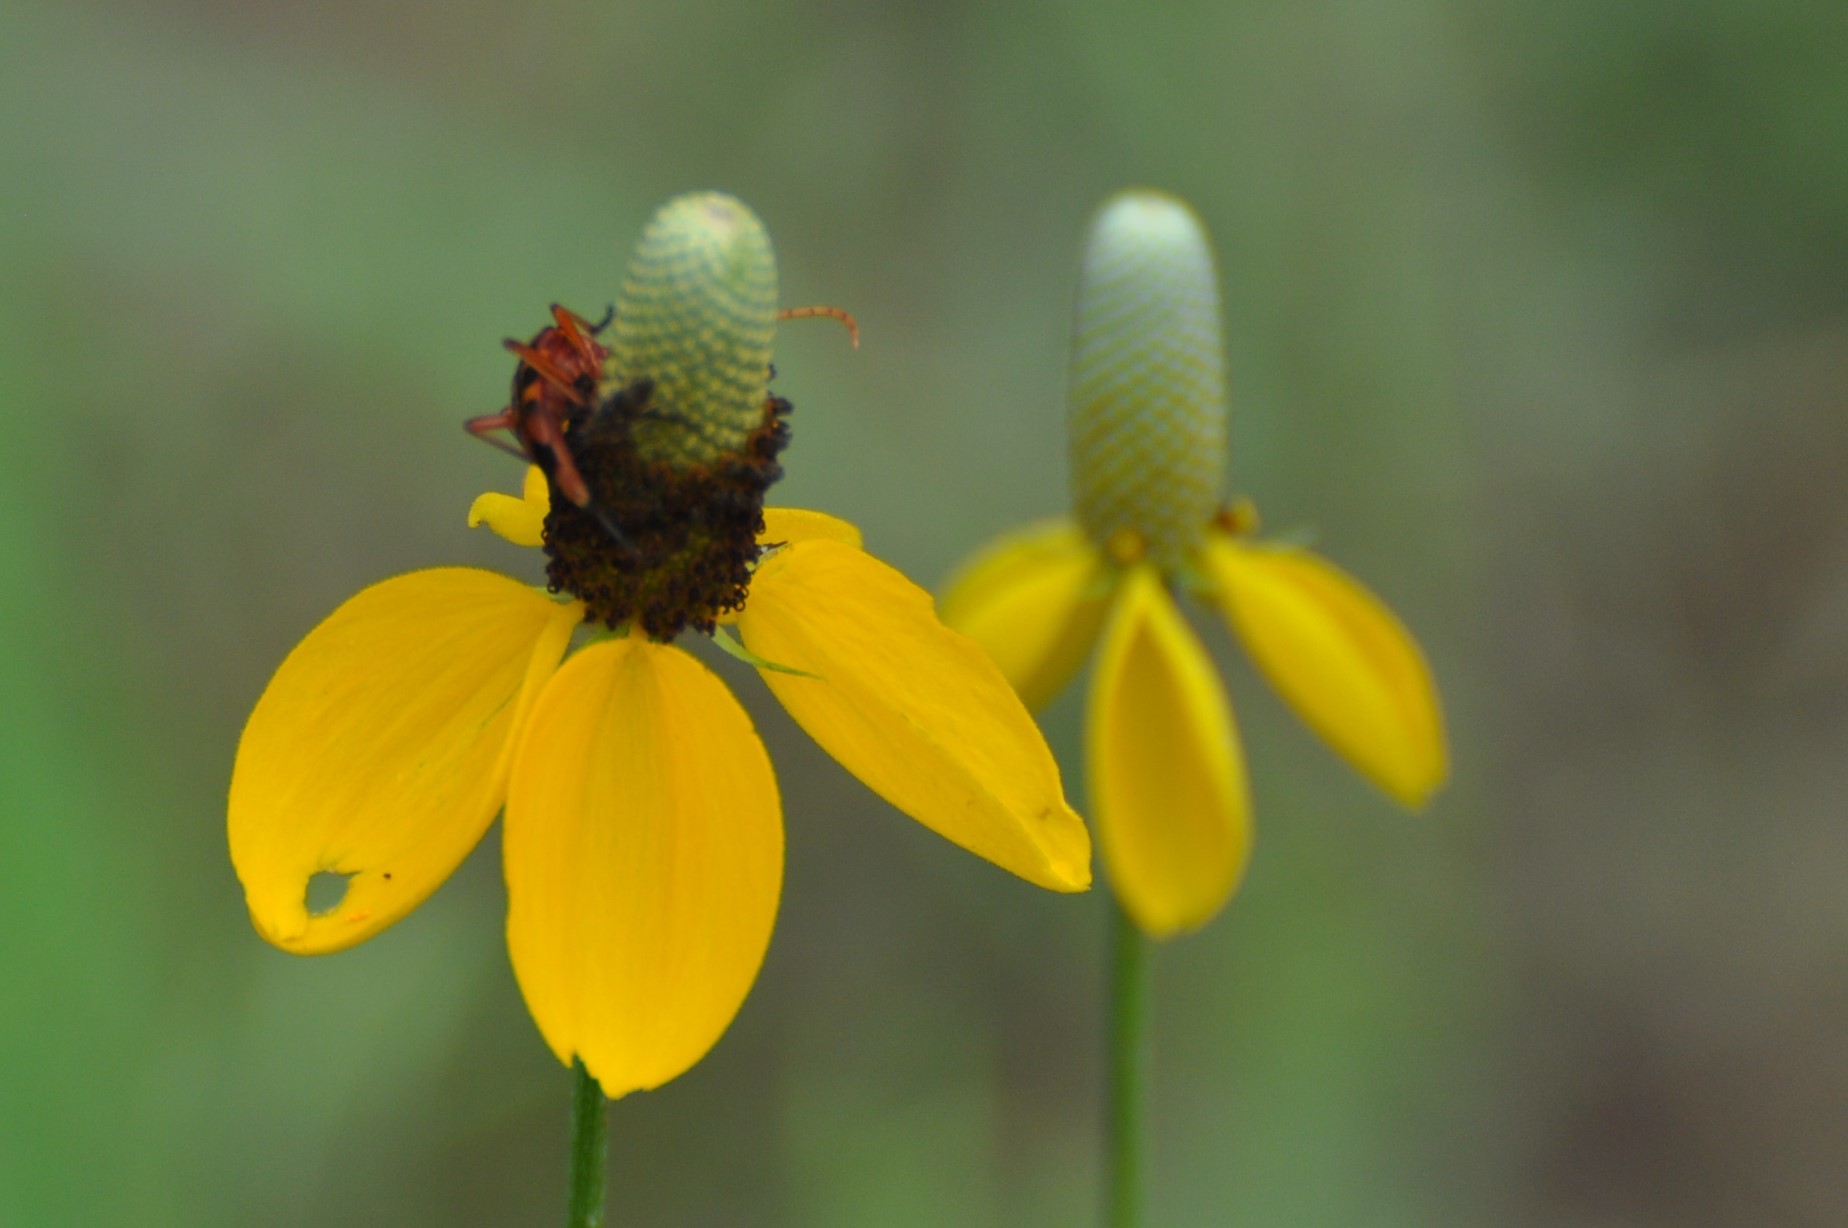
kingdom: Plantae
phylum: Tracheophyta
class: Magnoliopsida
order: Asterales
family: Asteraceae
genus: Ratibida
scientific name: Ratibida columnifera
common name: Prairie coneflower
